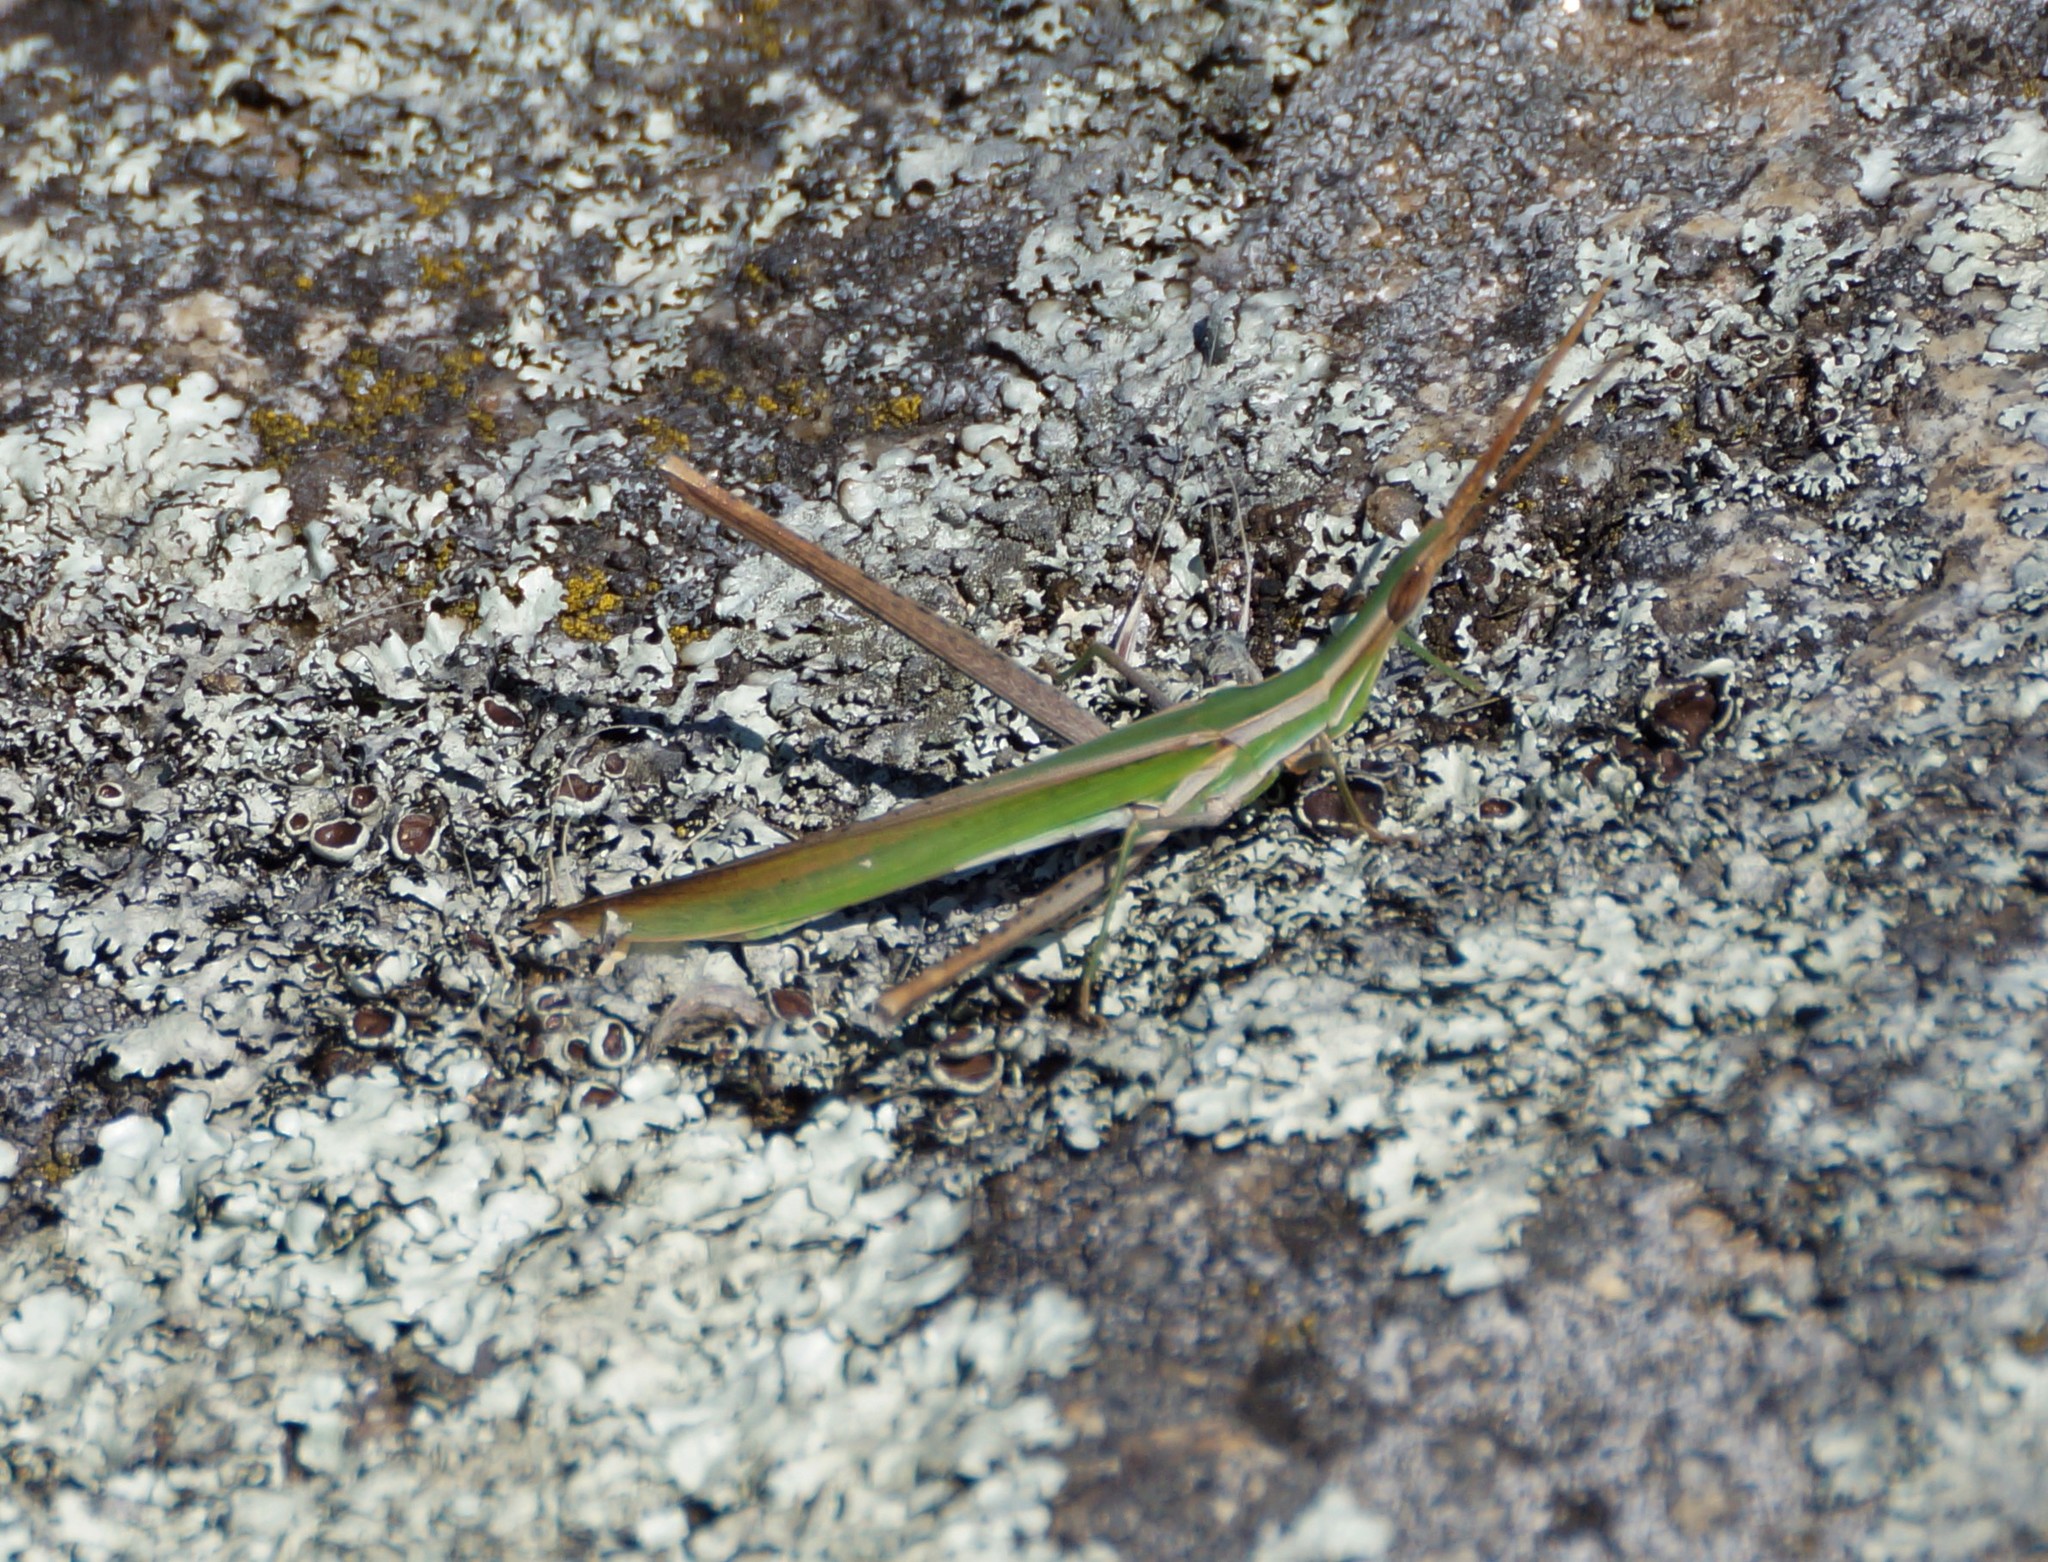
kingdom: Animalia
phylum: Arthropoda
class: Insecta
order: Orthoptera
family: Acrididae
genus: Acrida
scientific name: Acrida conica
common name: Giant green slantface
